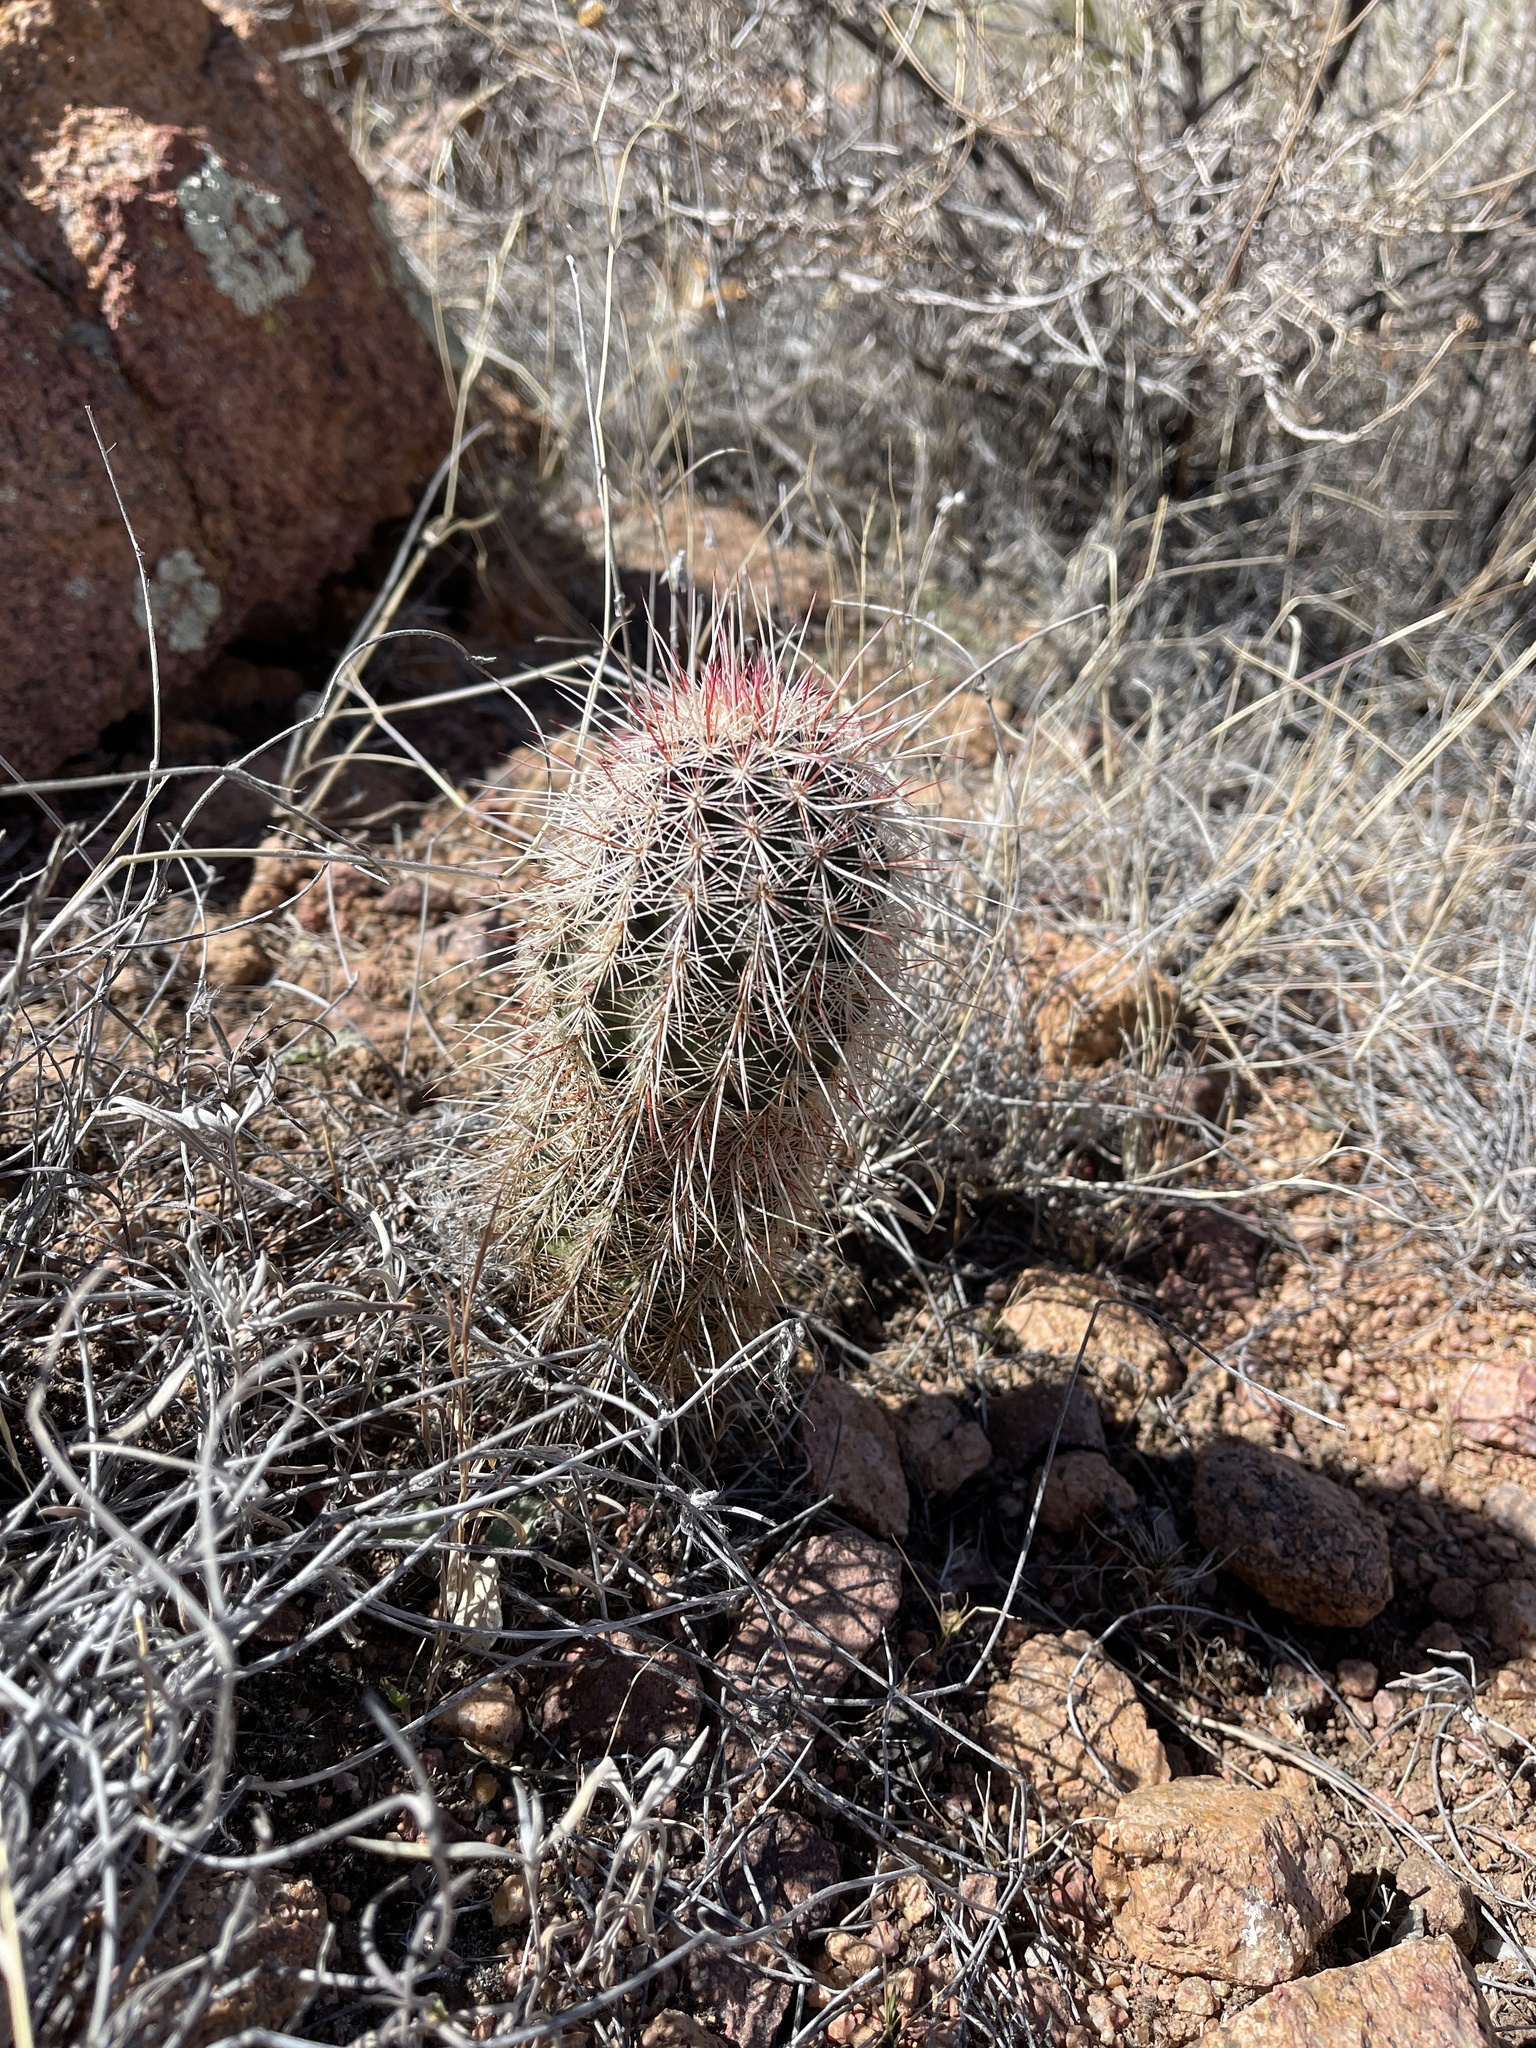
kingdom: Plantae
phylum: Tracheophyta
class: Magnoliopsida
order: Caryophyllales
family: Cactaceae
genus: Echinocereus
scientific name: Echinocereus viridiflorus
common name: Nylon hedgehog cactus
